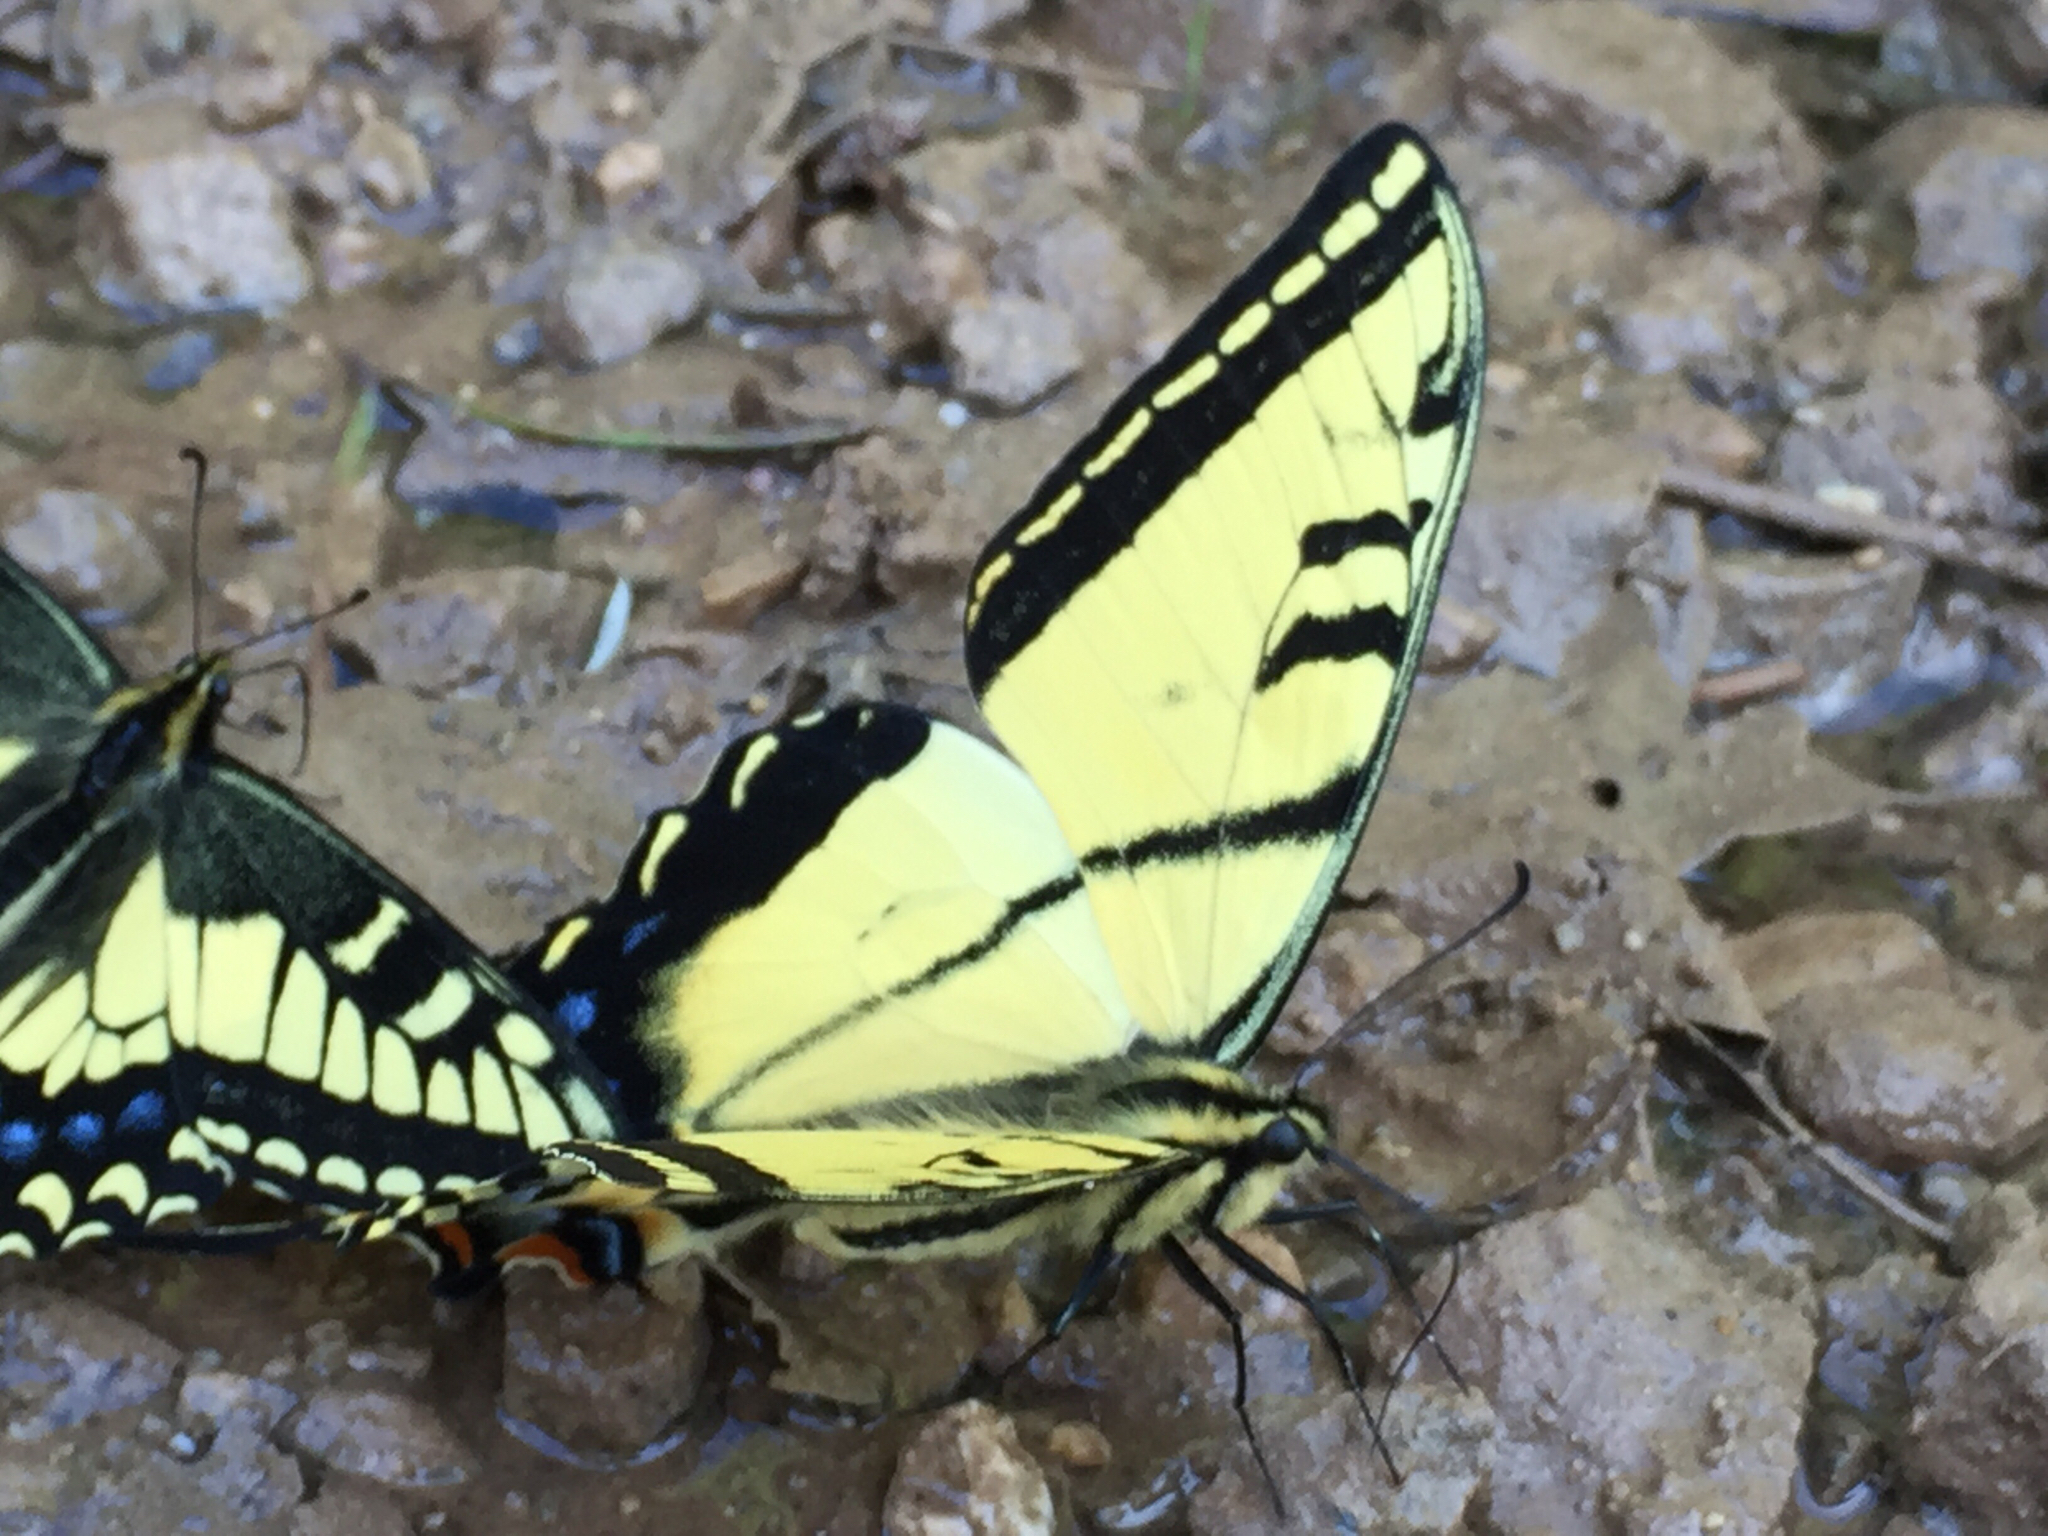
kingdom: Animalia
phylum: Arthropoda
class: Insecta
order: Lepidoptera
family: Papilionidae
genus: Papilio
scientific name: Papilio multicaudata
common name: Two-tailed tiger swallowtail
